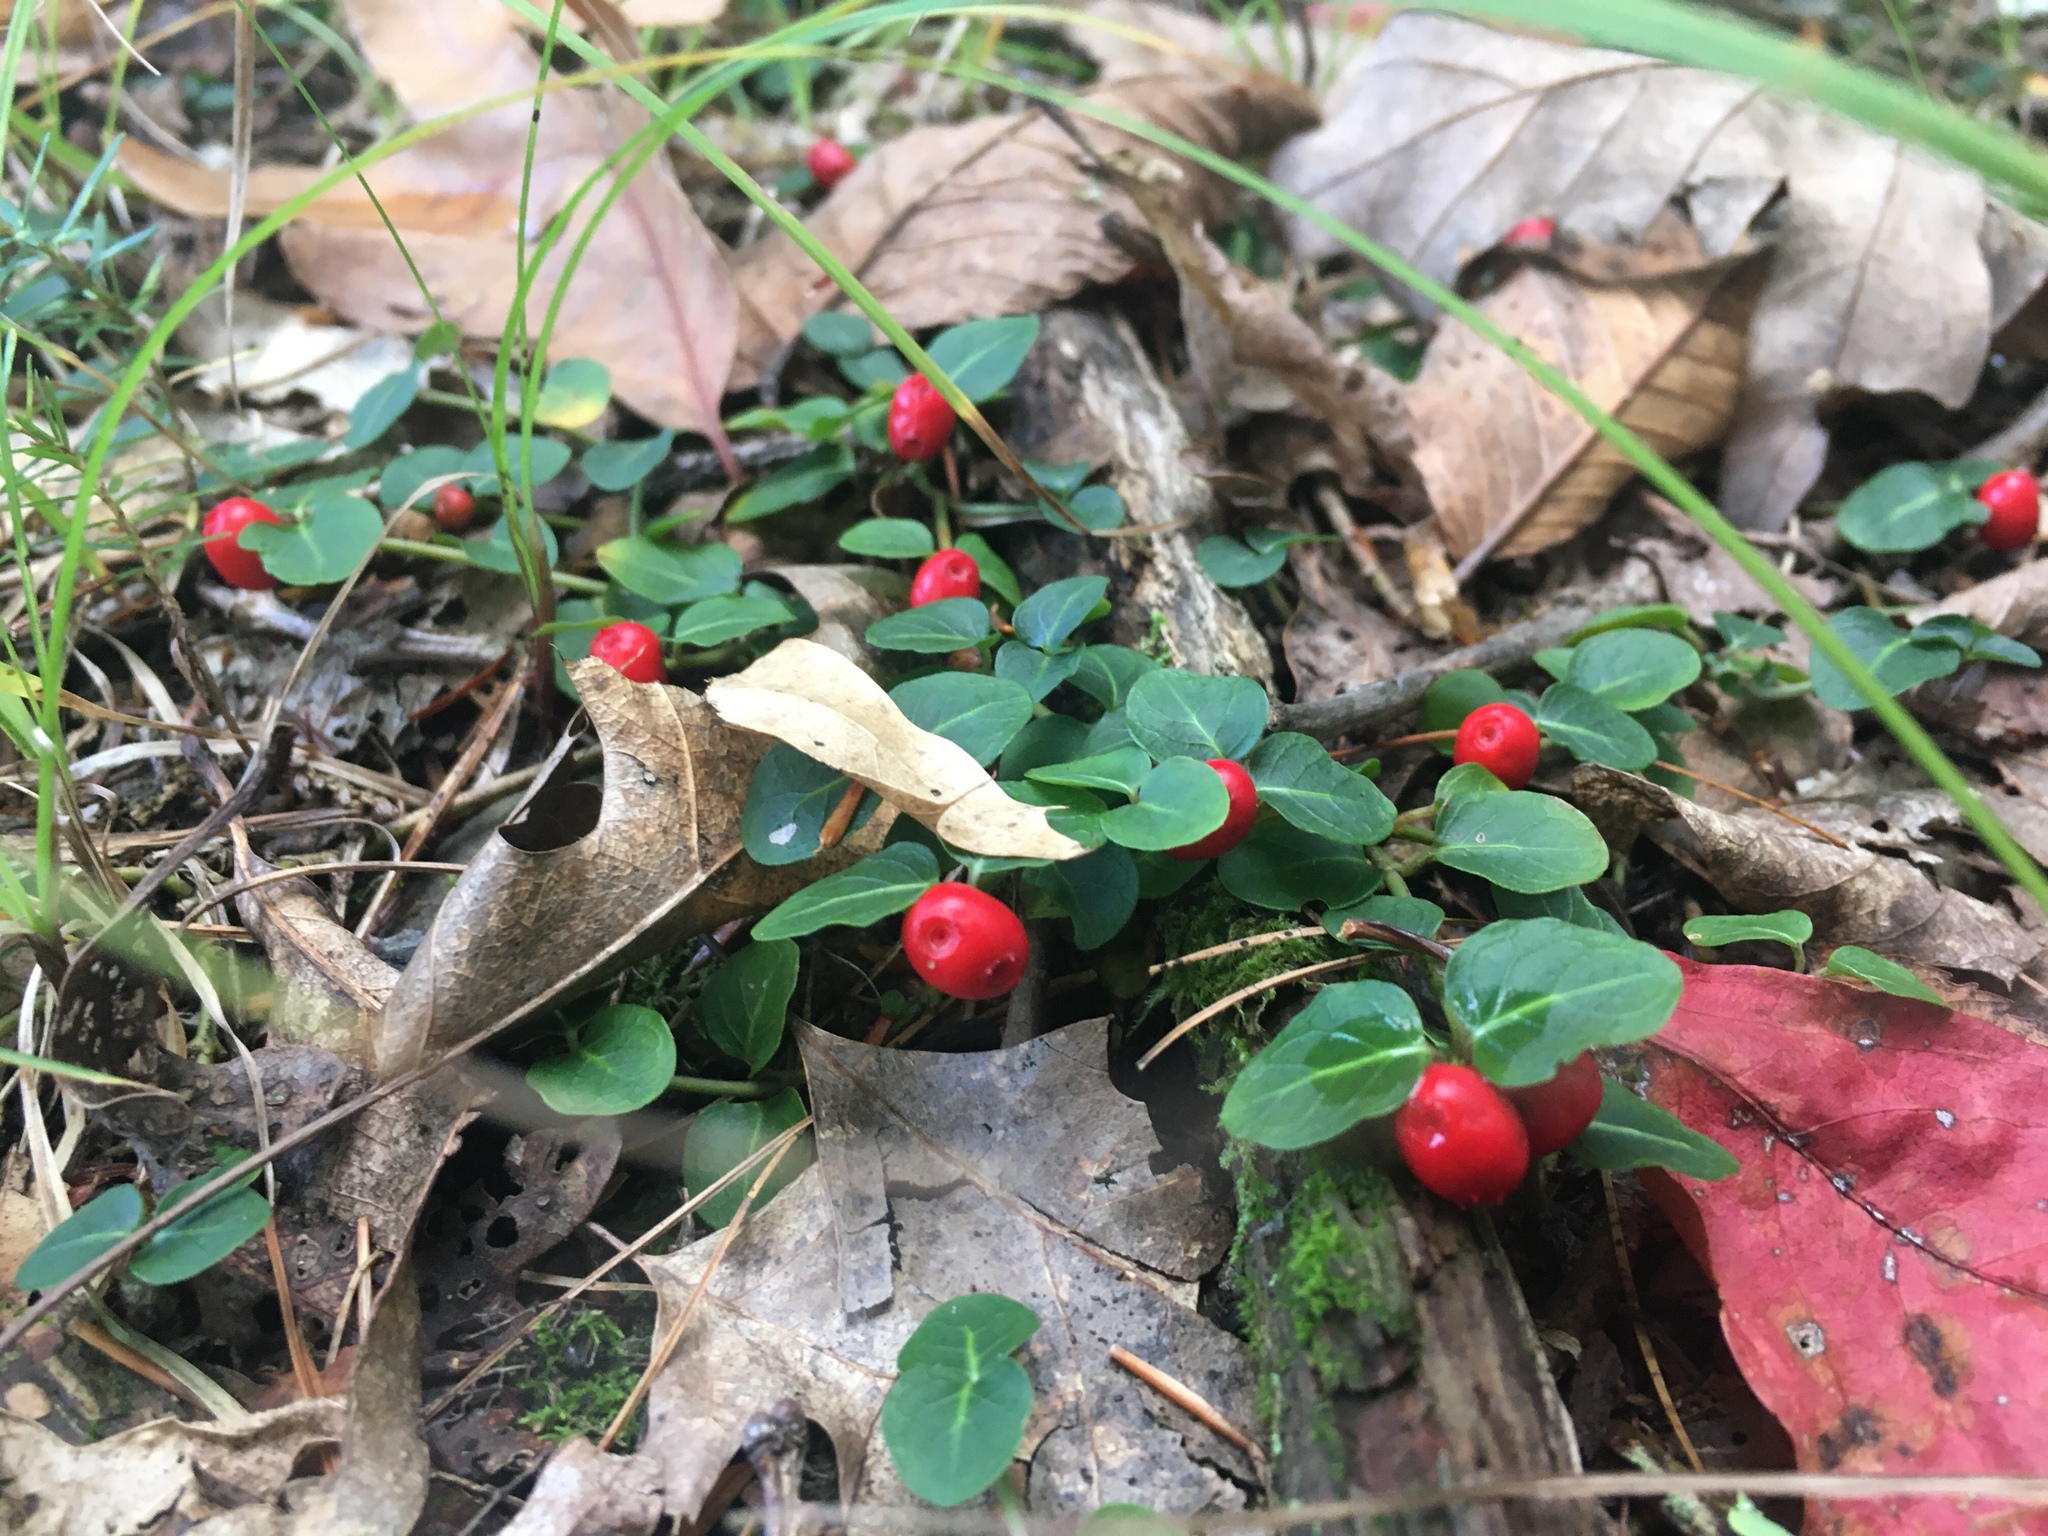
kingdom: Plantae
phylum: Tracheophyta
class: Magnoliopsida
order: Gentianales
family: Rubiaceae
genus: Mitchella
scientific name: Mitchella repens
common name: Partridge-berry
